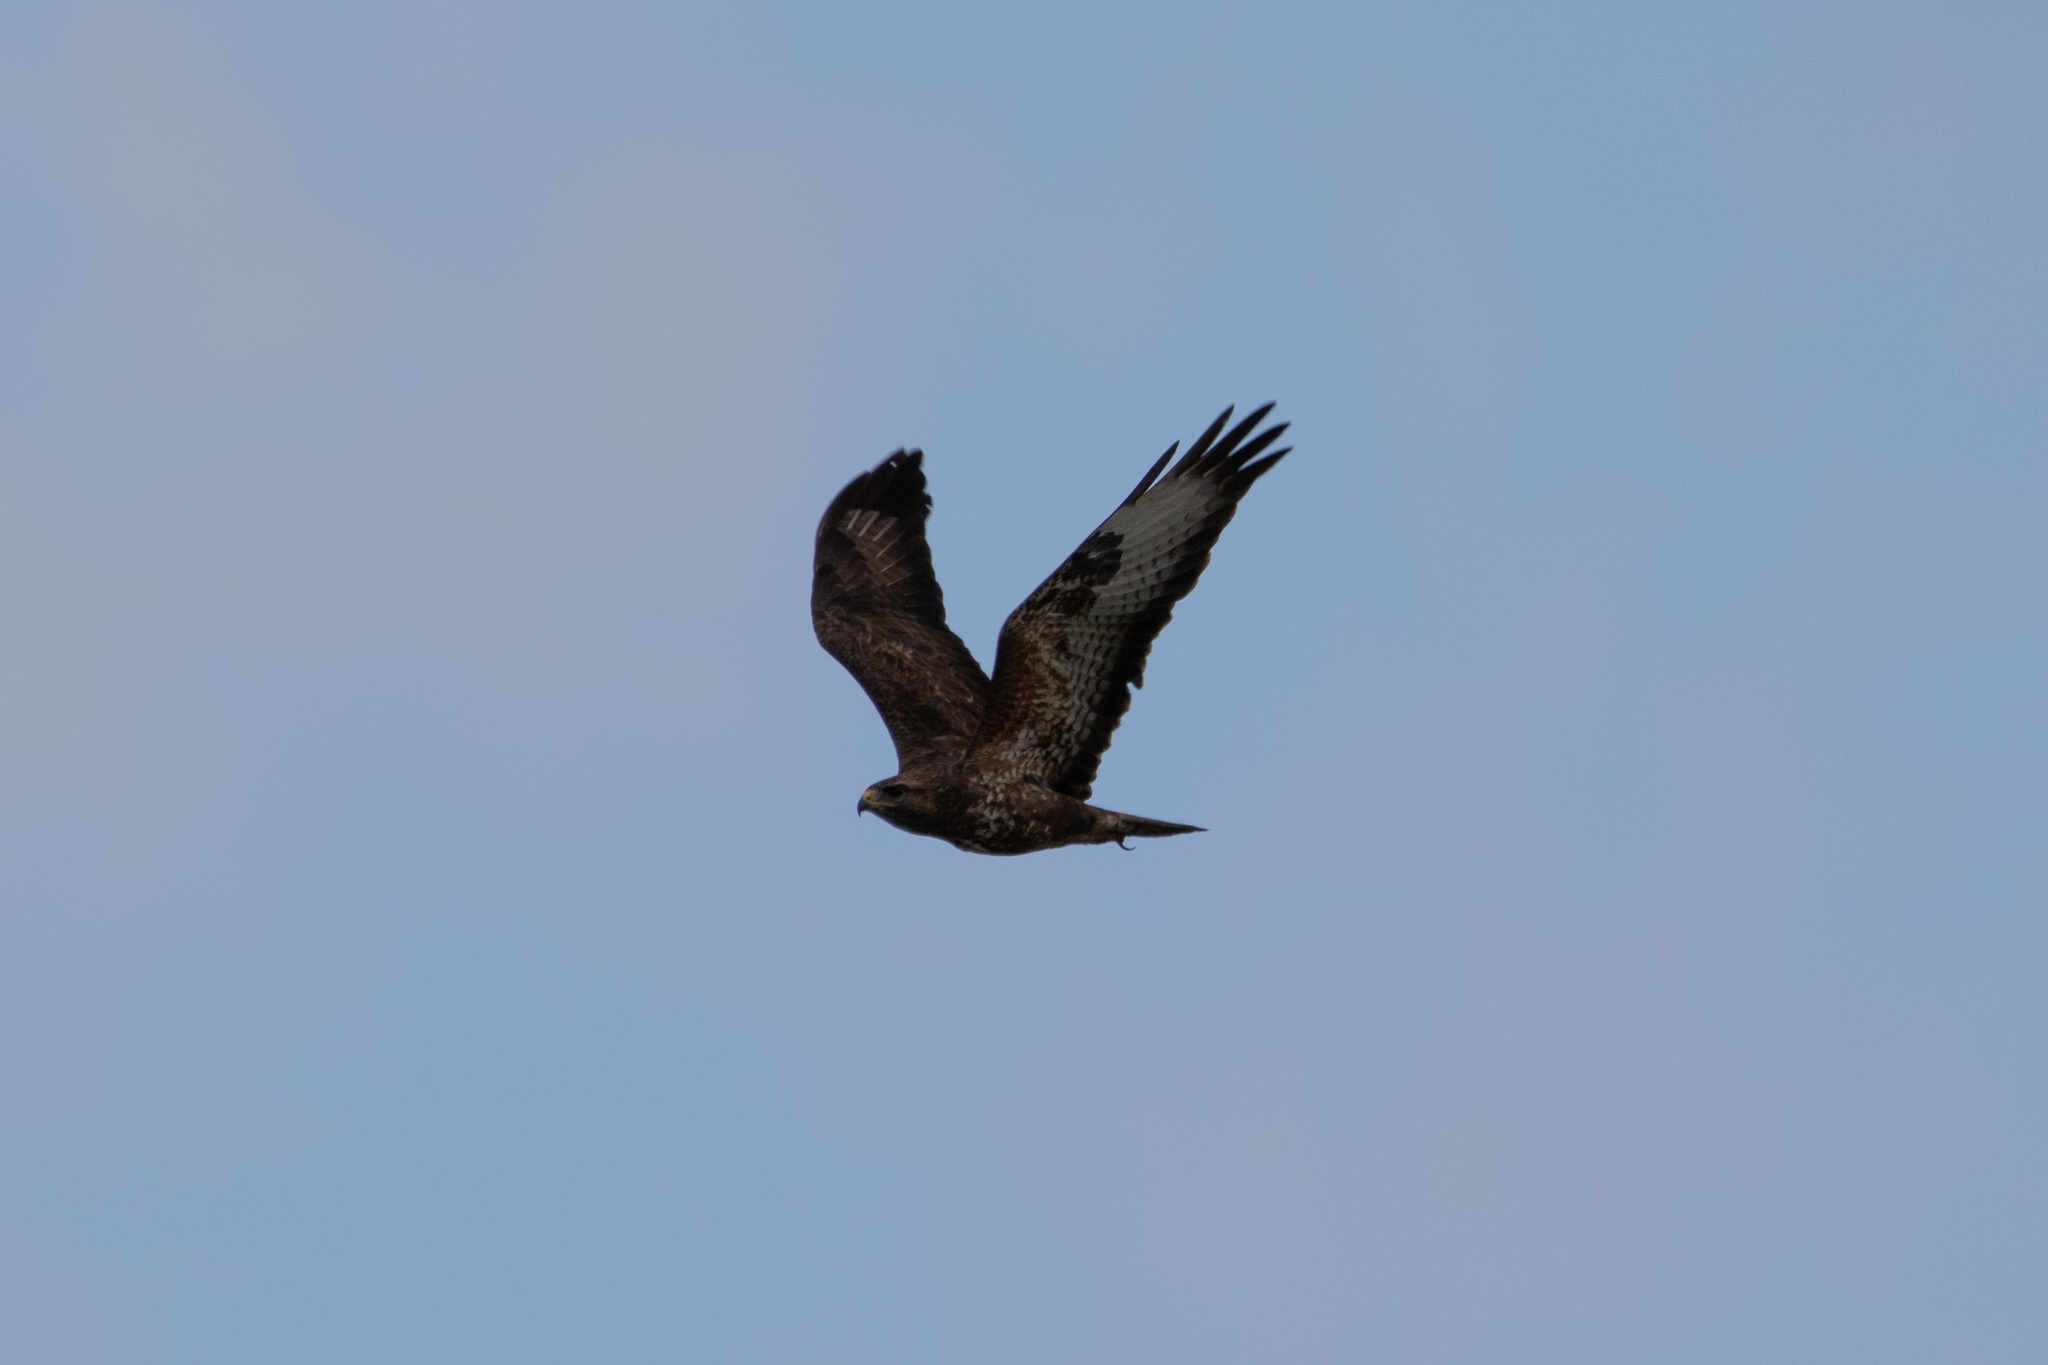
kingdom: Animalia
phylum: Chordata
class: Aves
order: Accipitriformes
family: Accipitridae
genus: Buteo
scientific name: Buteo buteo
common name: Common buzzard
